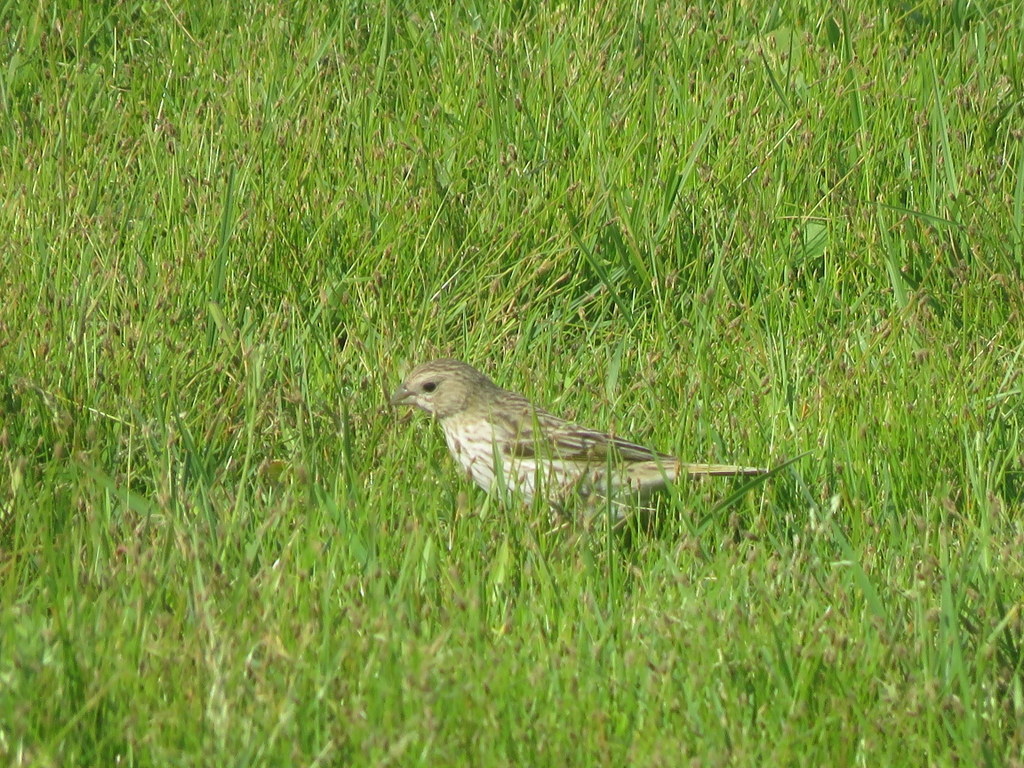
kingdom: Animalia
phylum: Chordata
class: Aves
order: Passeriformes
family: Thraupidae
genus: Sicalis
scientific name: Sicalis flaveola
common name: Saffron finch
